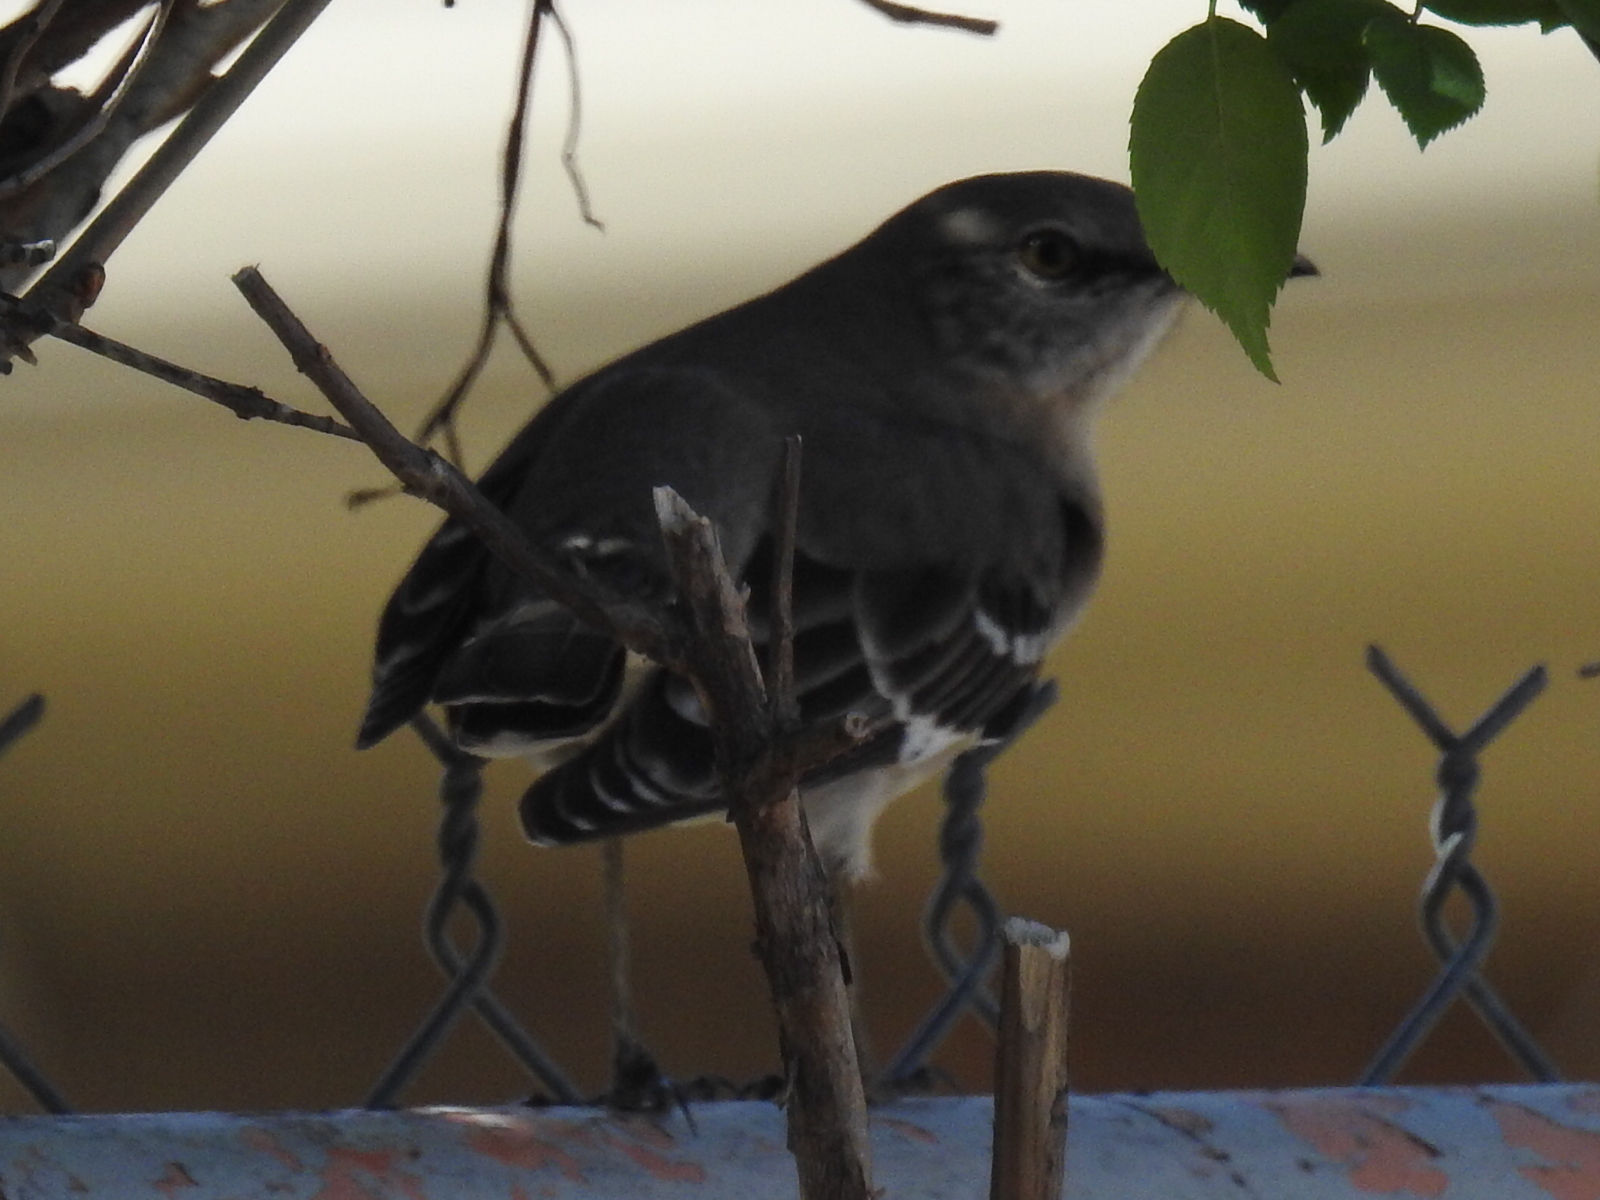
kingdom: Animalia
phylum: Chordata
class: Aves
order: Passeriformes
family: Mimidae
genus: Mimus
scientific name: Mimus polyglottos
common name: Northern mockingbird
